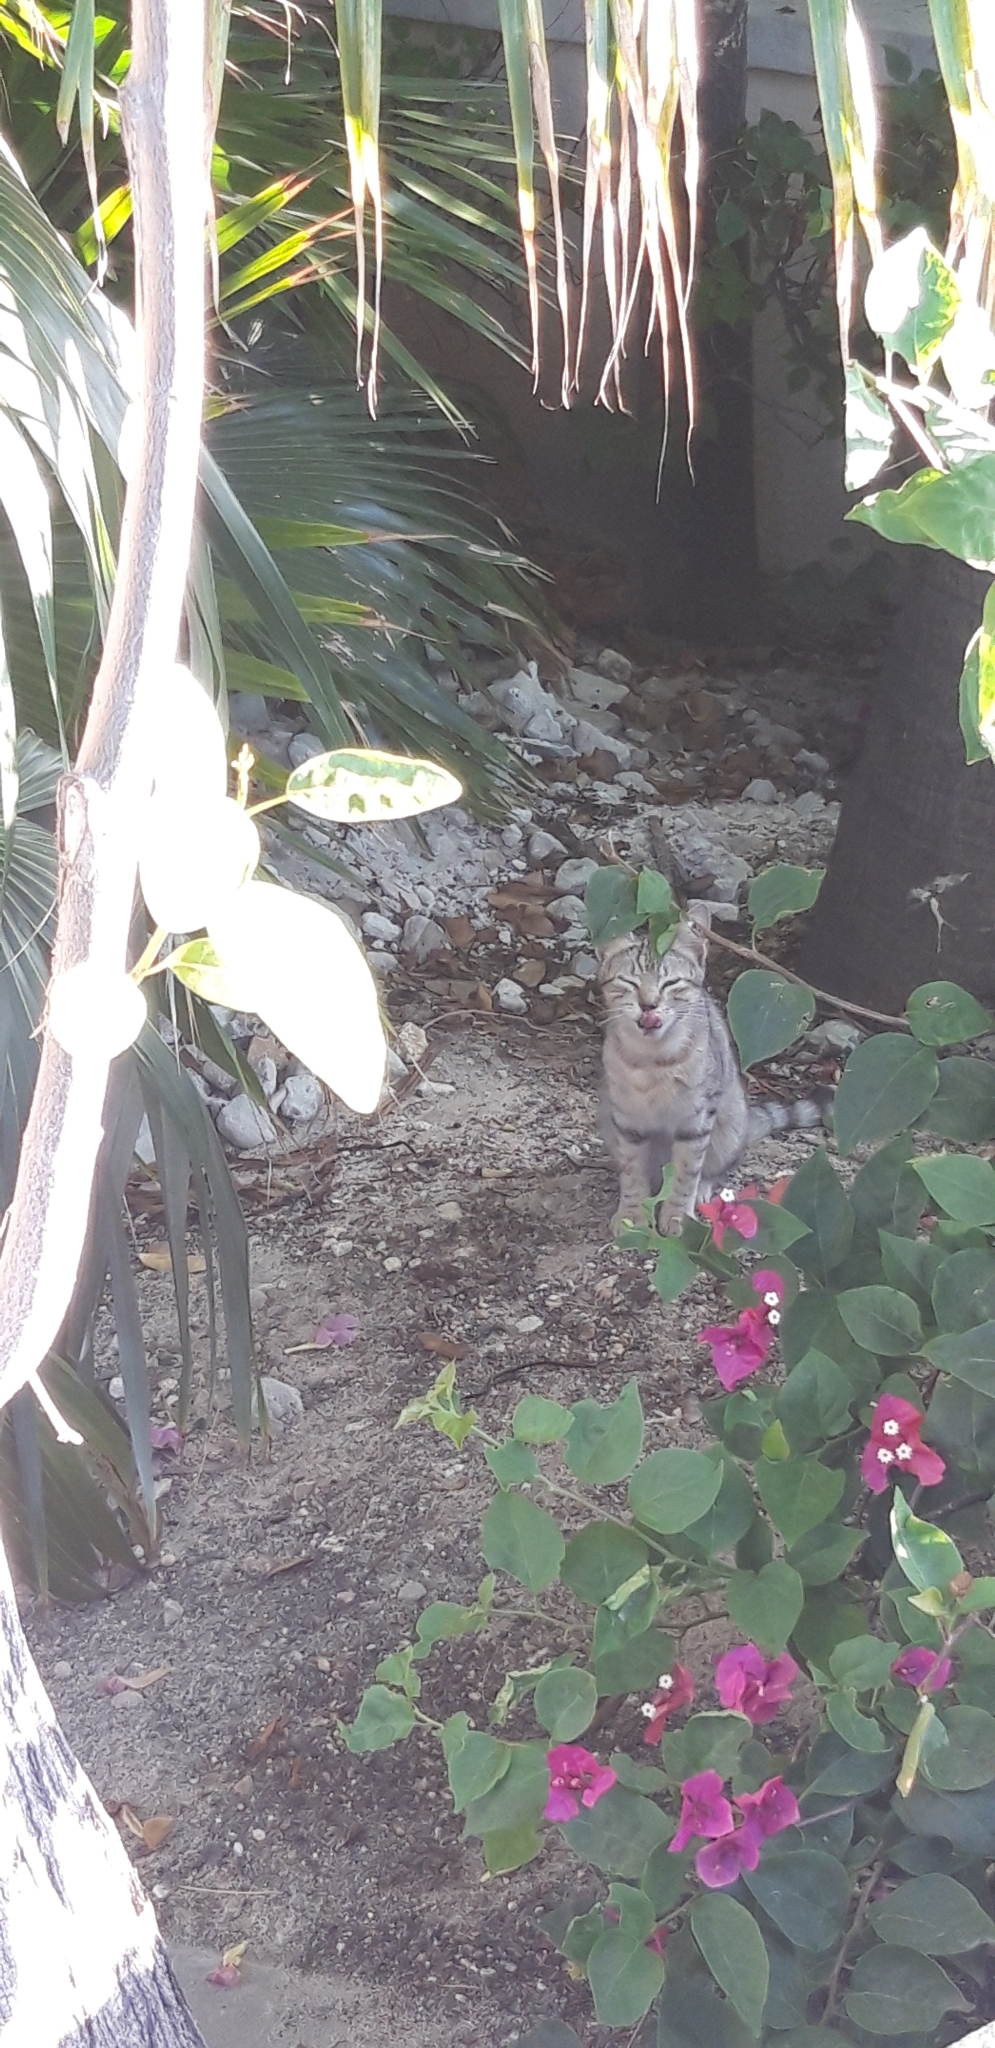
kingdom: Animalia
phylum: Chordata
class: Mammalia
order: Carnivora
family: Felidae
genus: Felis
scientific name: Felis catus
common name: Domestic cat
